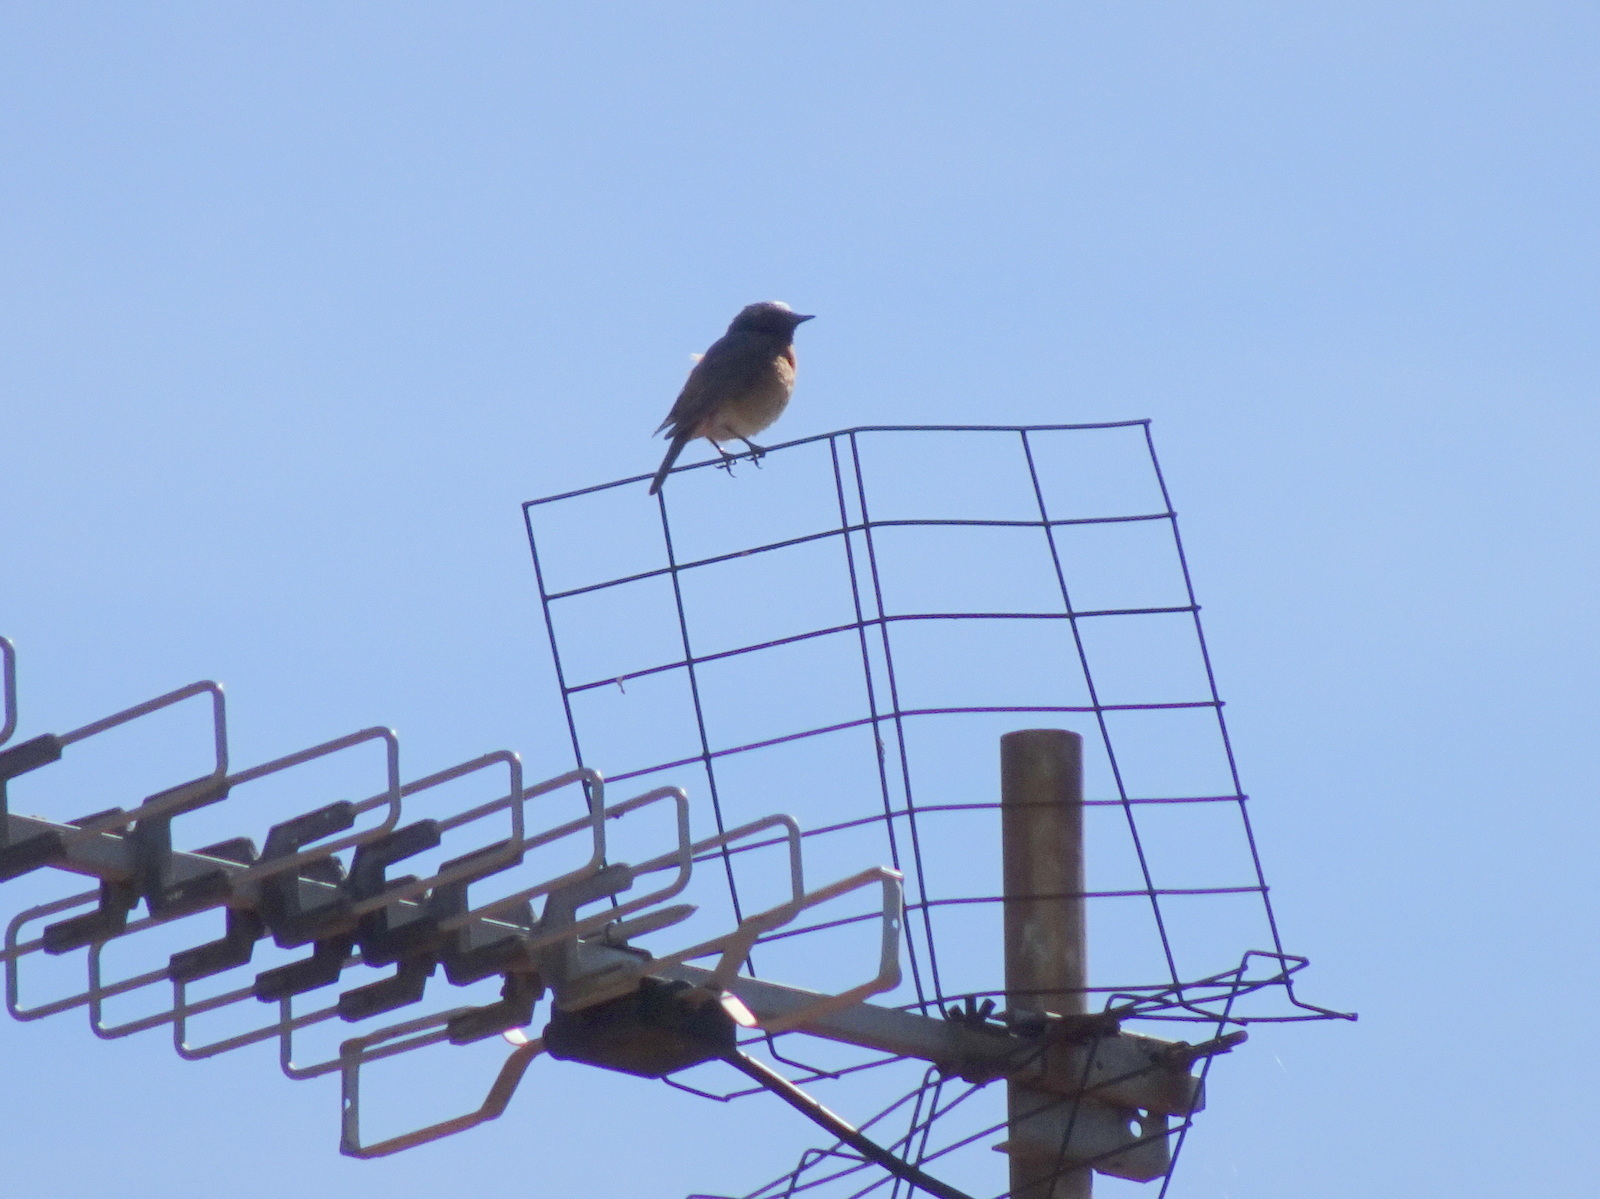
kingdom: Animalia
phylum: Chordata
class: Aves
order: Passeriformes
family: Muscicapidae
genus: Phoenicurus
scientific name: Phoenicurus phoenicurus
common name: Common redstart
